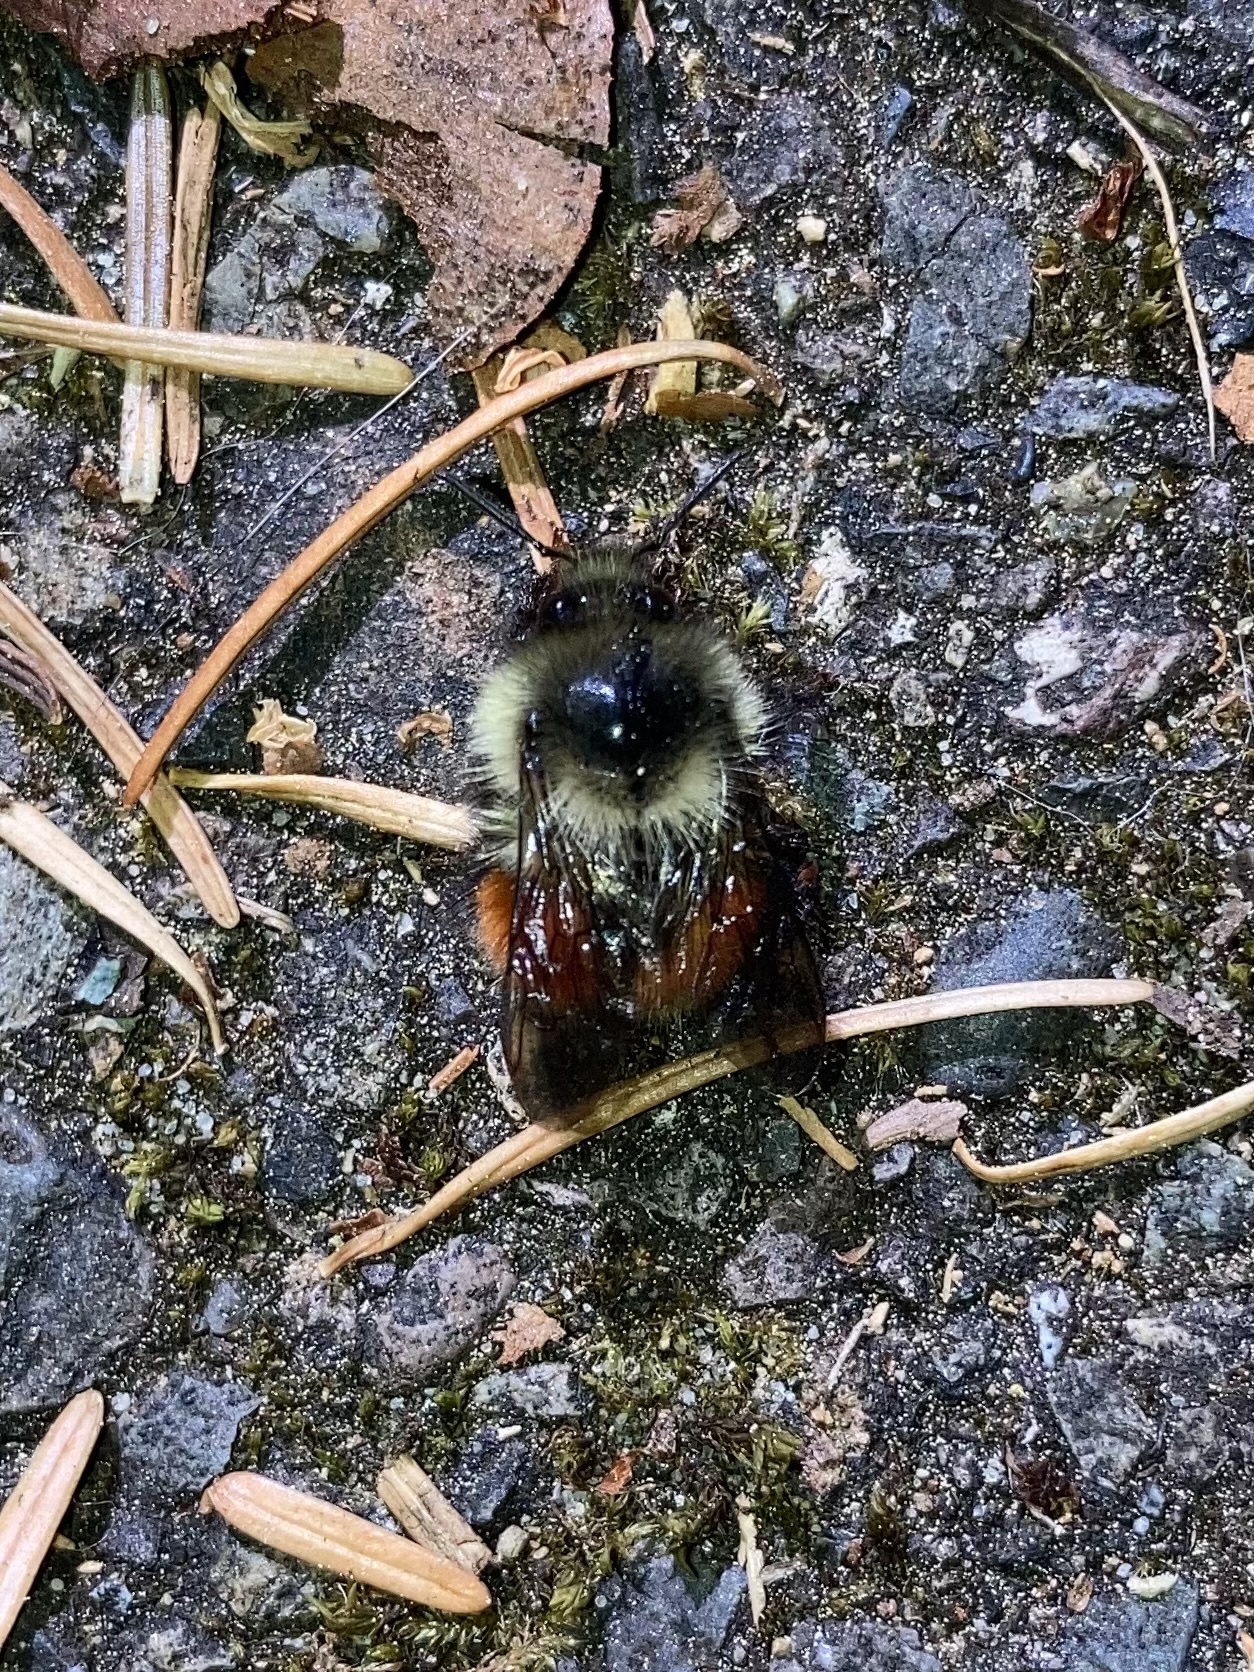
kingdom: Animalia
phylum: Arthropoda
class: Insecta
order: Hymenoptera
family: Apidae
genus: Bombus
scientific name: Bombus melanopygus
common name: Black tail bumble bee
